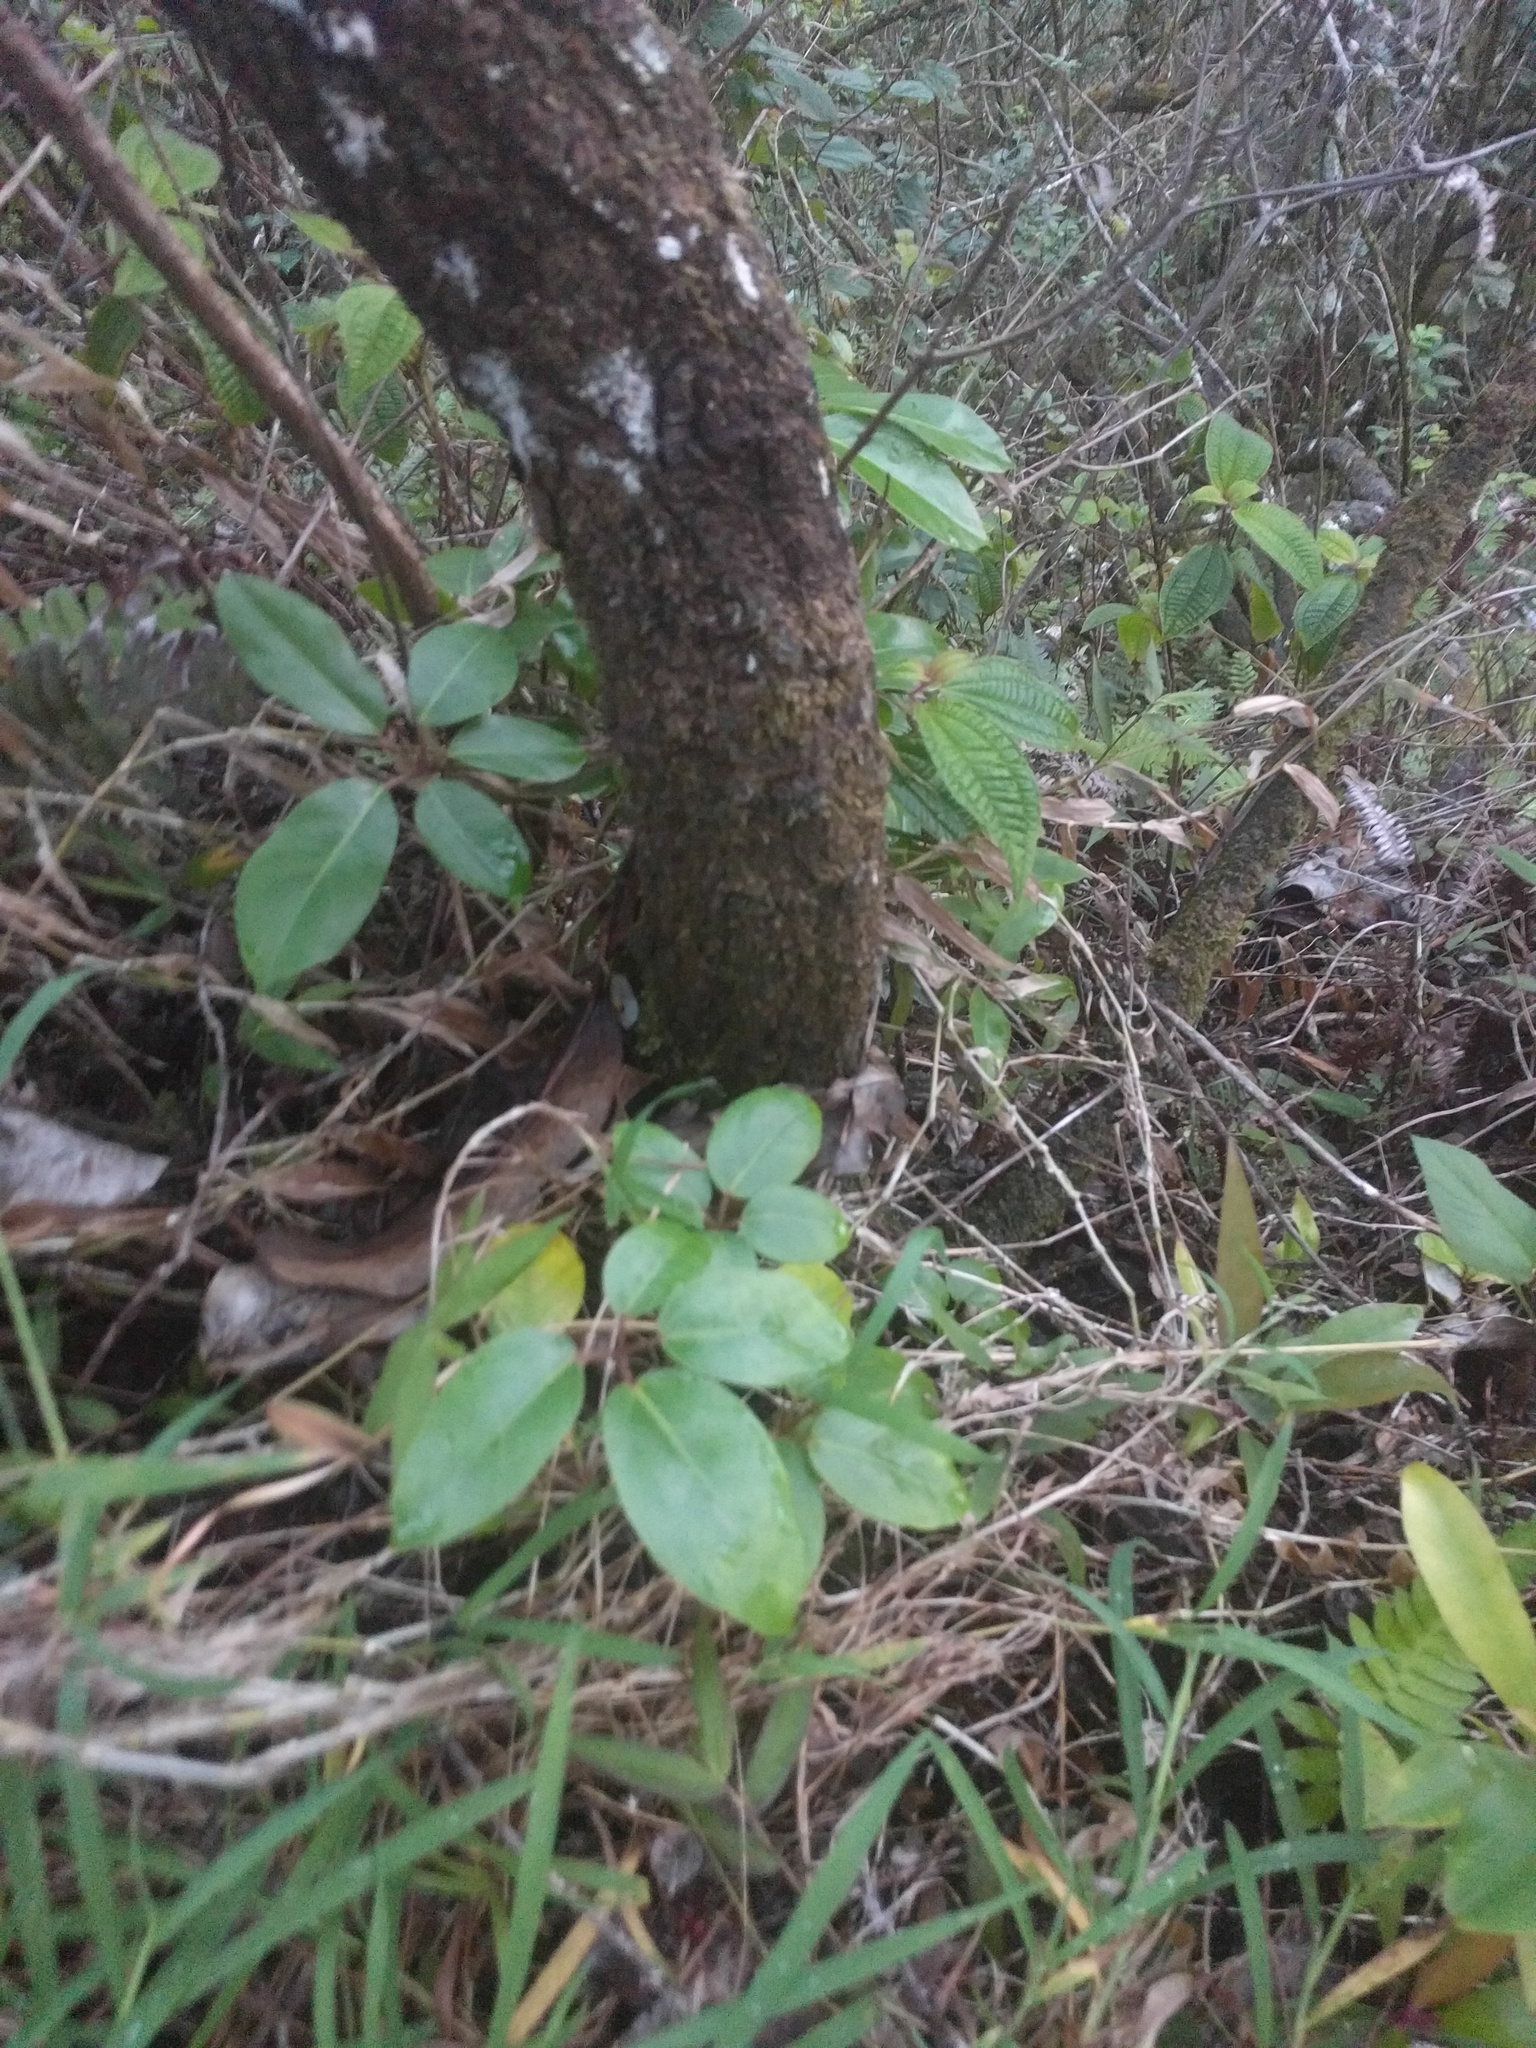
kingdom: Plantae
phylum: Tracheophyta
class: Magnoliopsida
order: Apiales
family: Araliaceae
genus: Heptapleurum
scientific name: Heptapleurum actinophyllum
